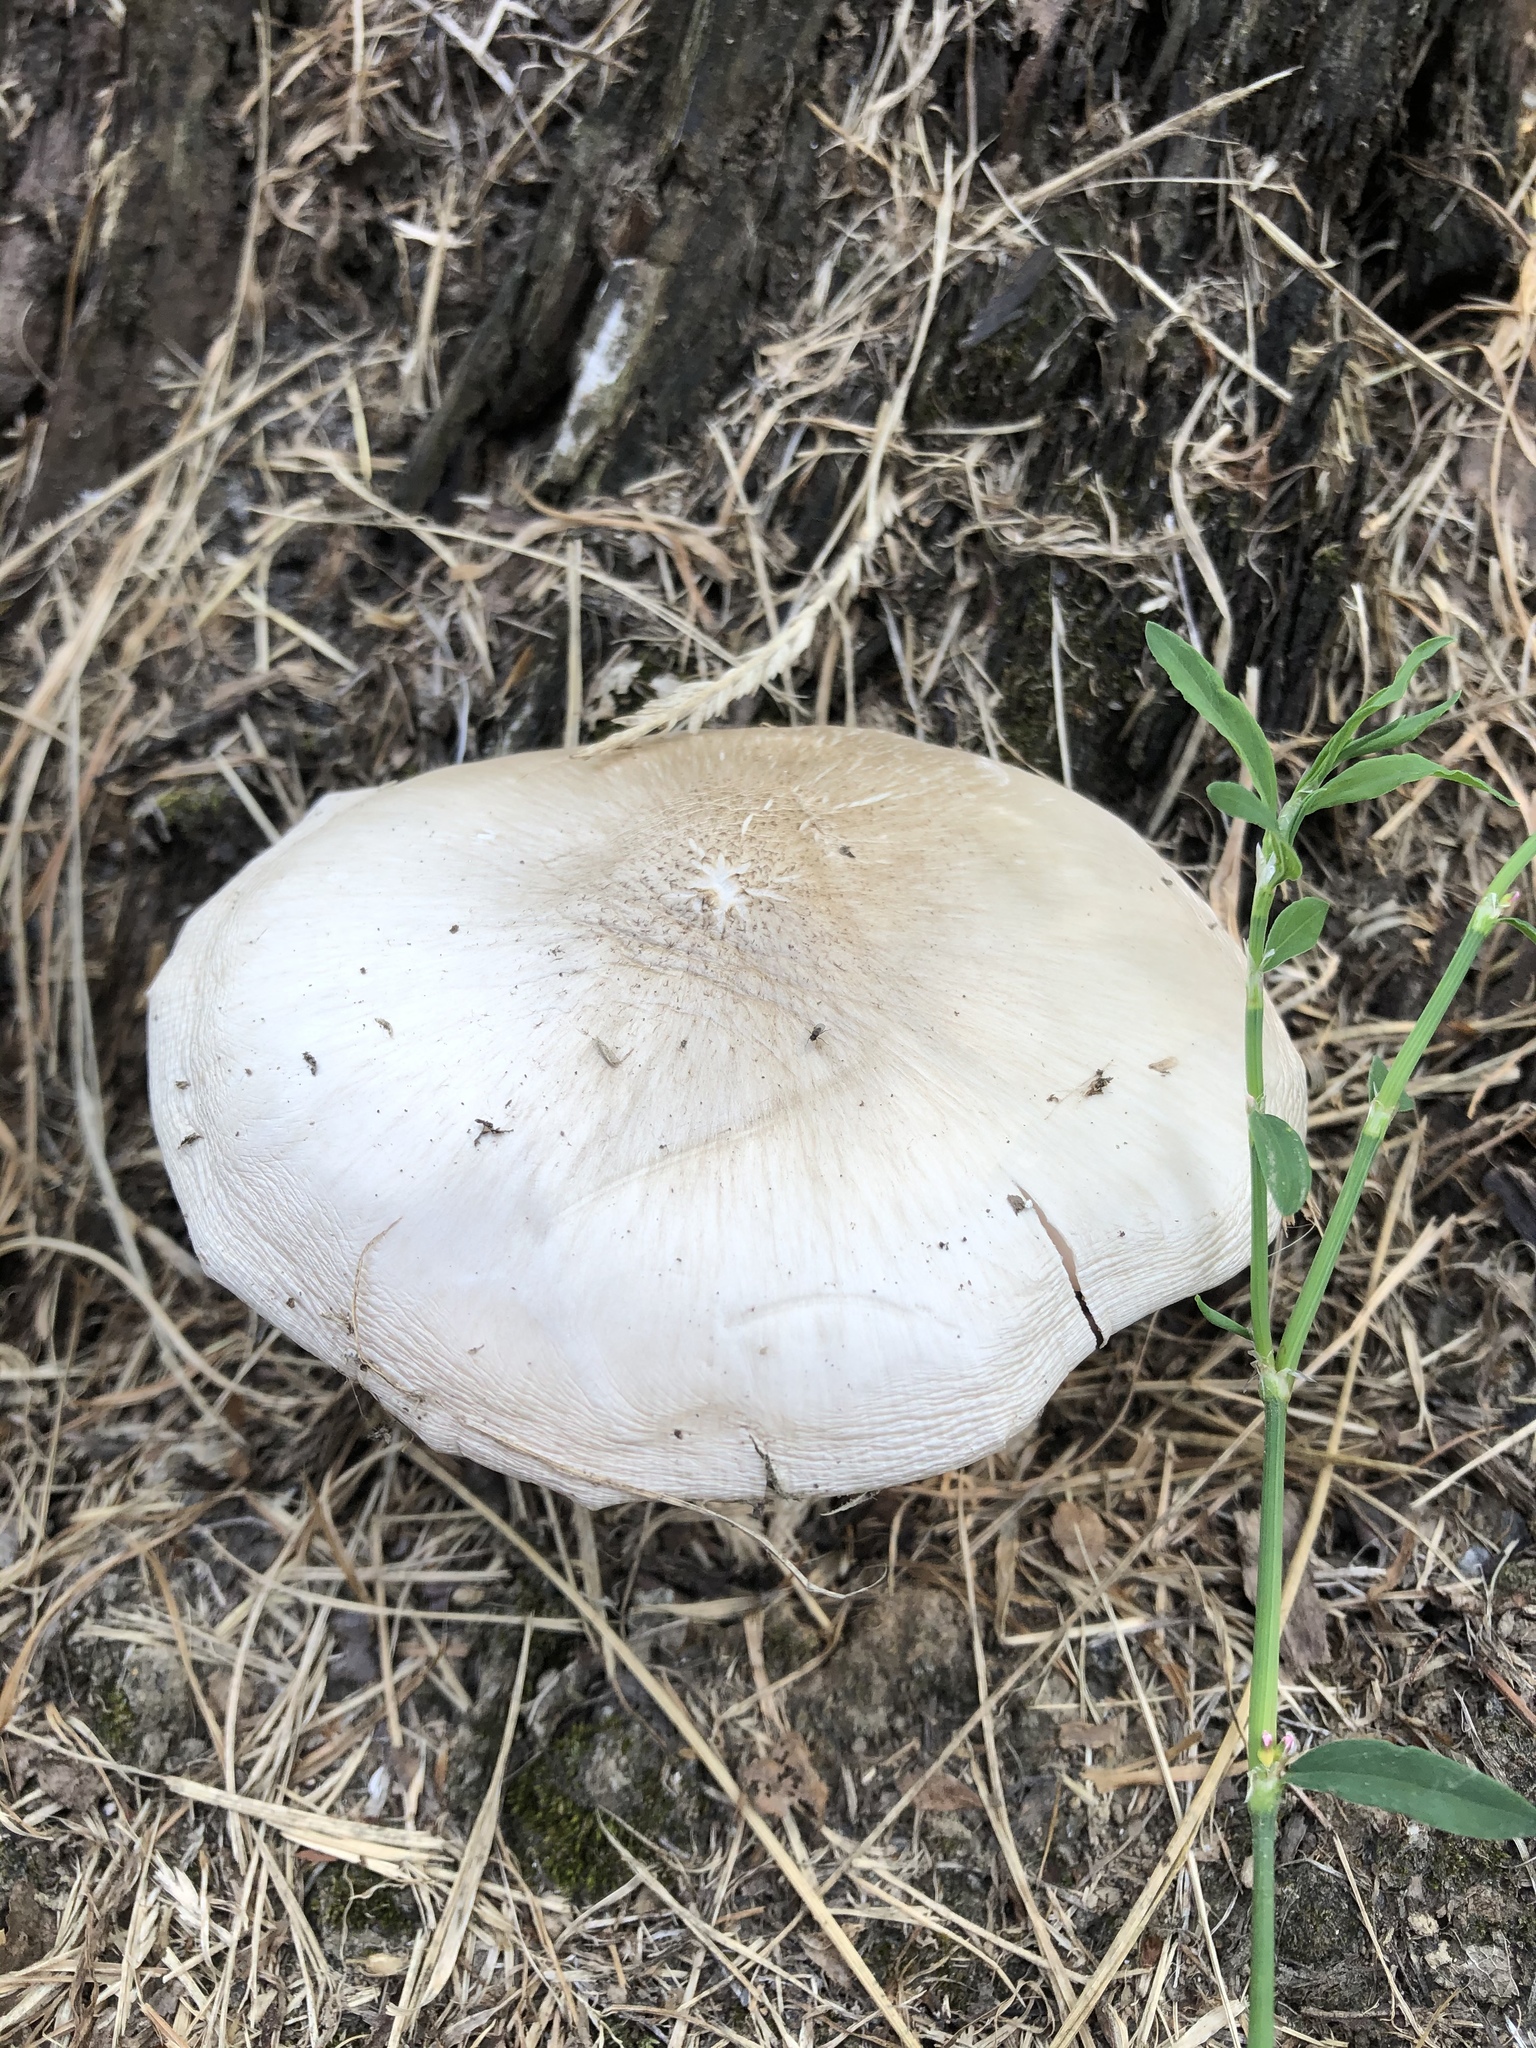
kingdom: Fungi
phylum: Basidiomycota
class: Agaricomycetes
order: Agaricales
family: Pluteaceae
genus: Pluteus
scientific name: Pluteus petasatus
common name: Scaly shield
